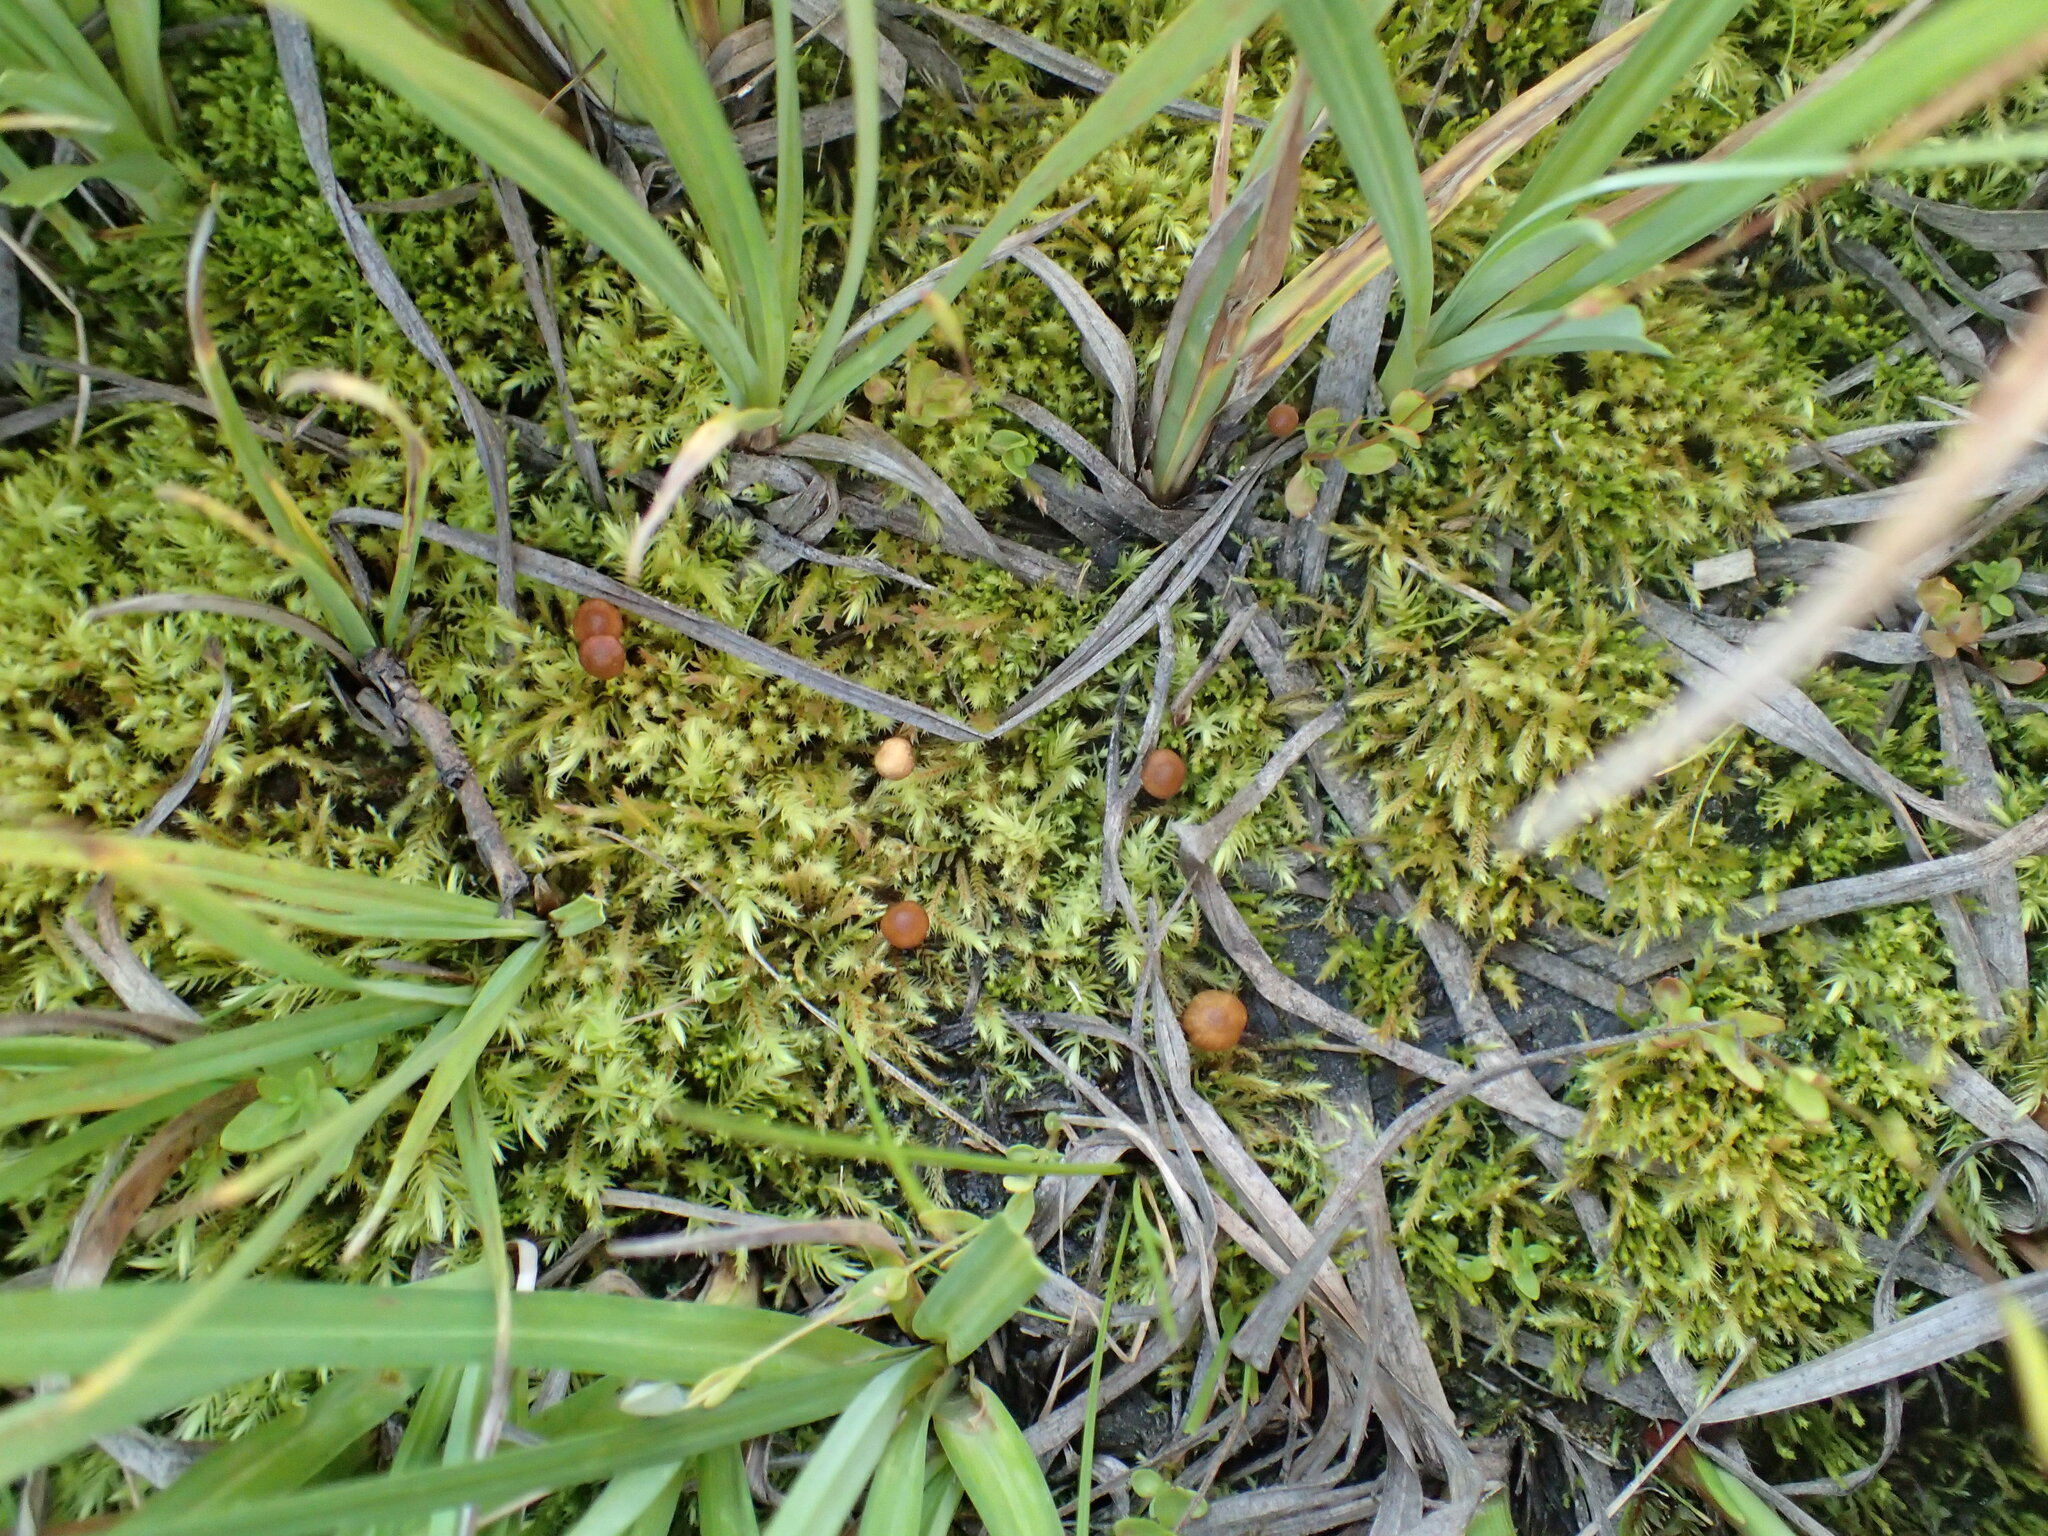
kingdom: Fungi
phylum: Basidiomycota
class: Agaricomycetes
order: Agaricales
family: Hymenogastraceae
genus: Galerina
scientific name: Galerina jaapii
